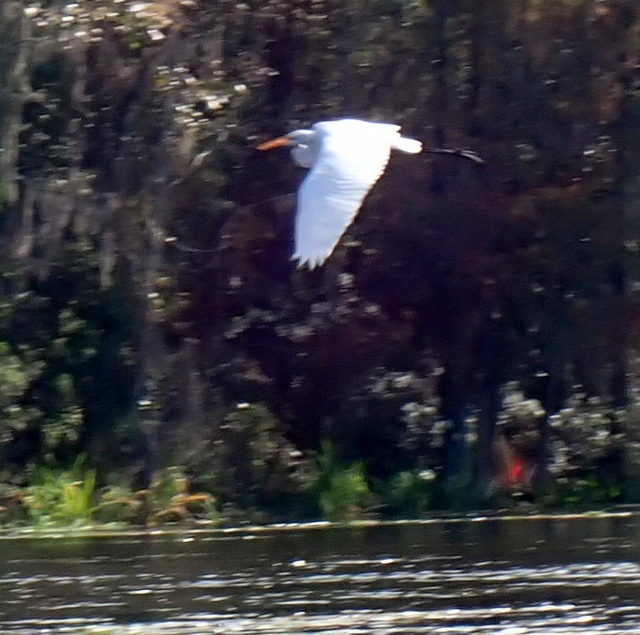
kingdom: Animalia
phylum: Chordata
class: Aves
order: Pelecaniformes
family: Ardeidae
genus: Ardea
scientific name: Ardea alba
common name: Great egret
